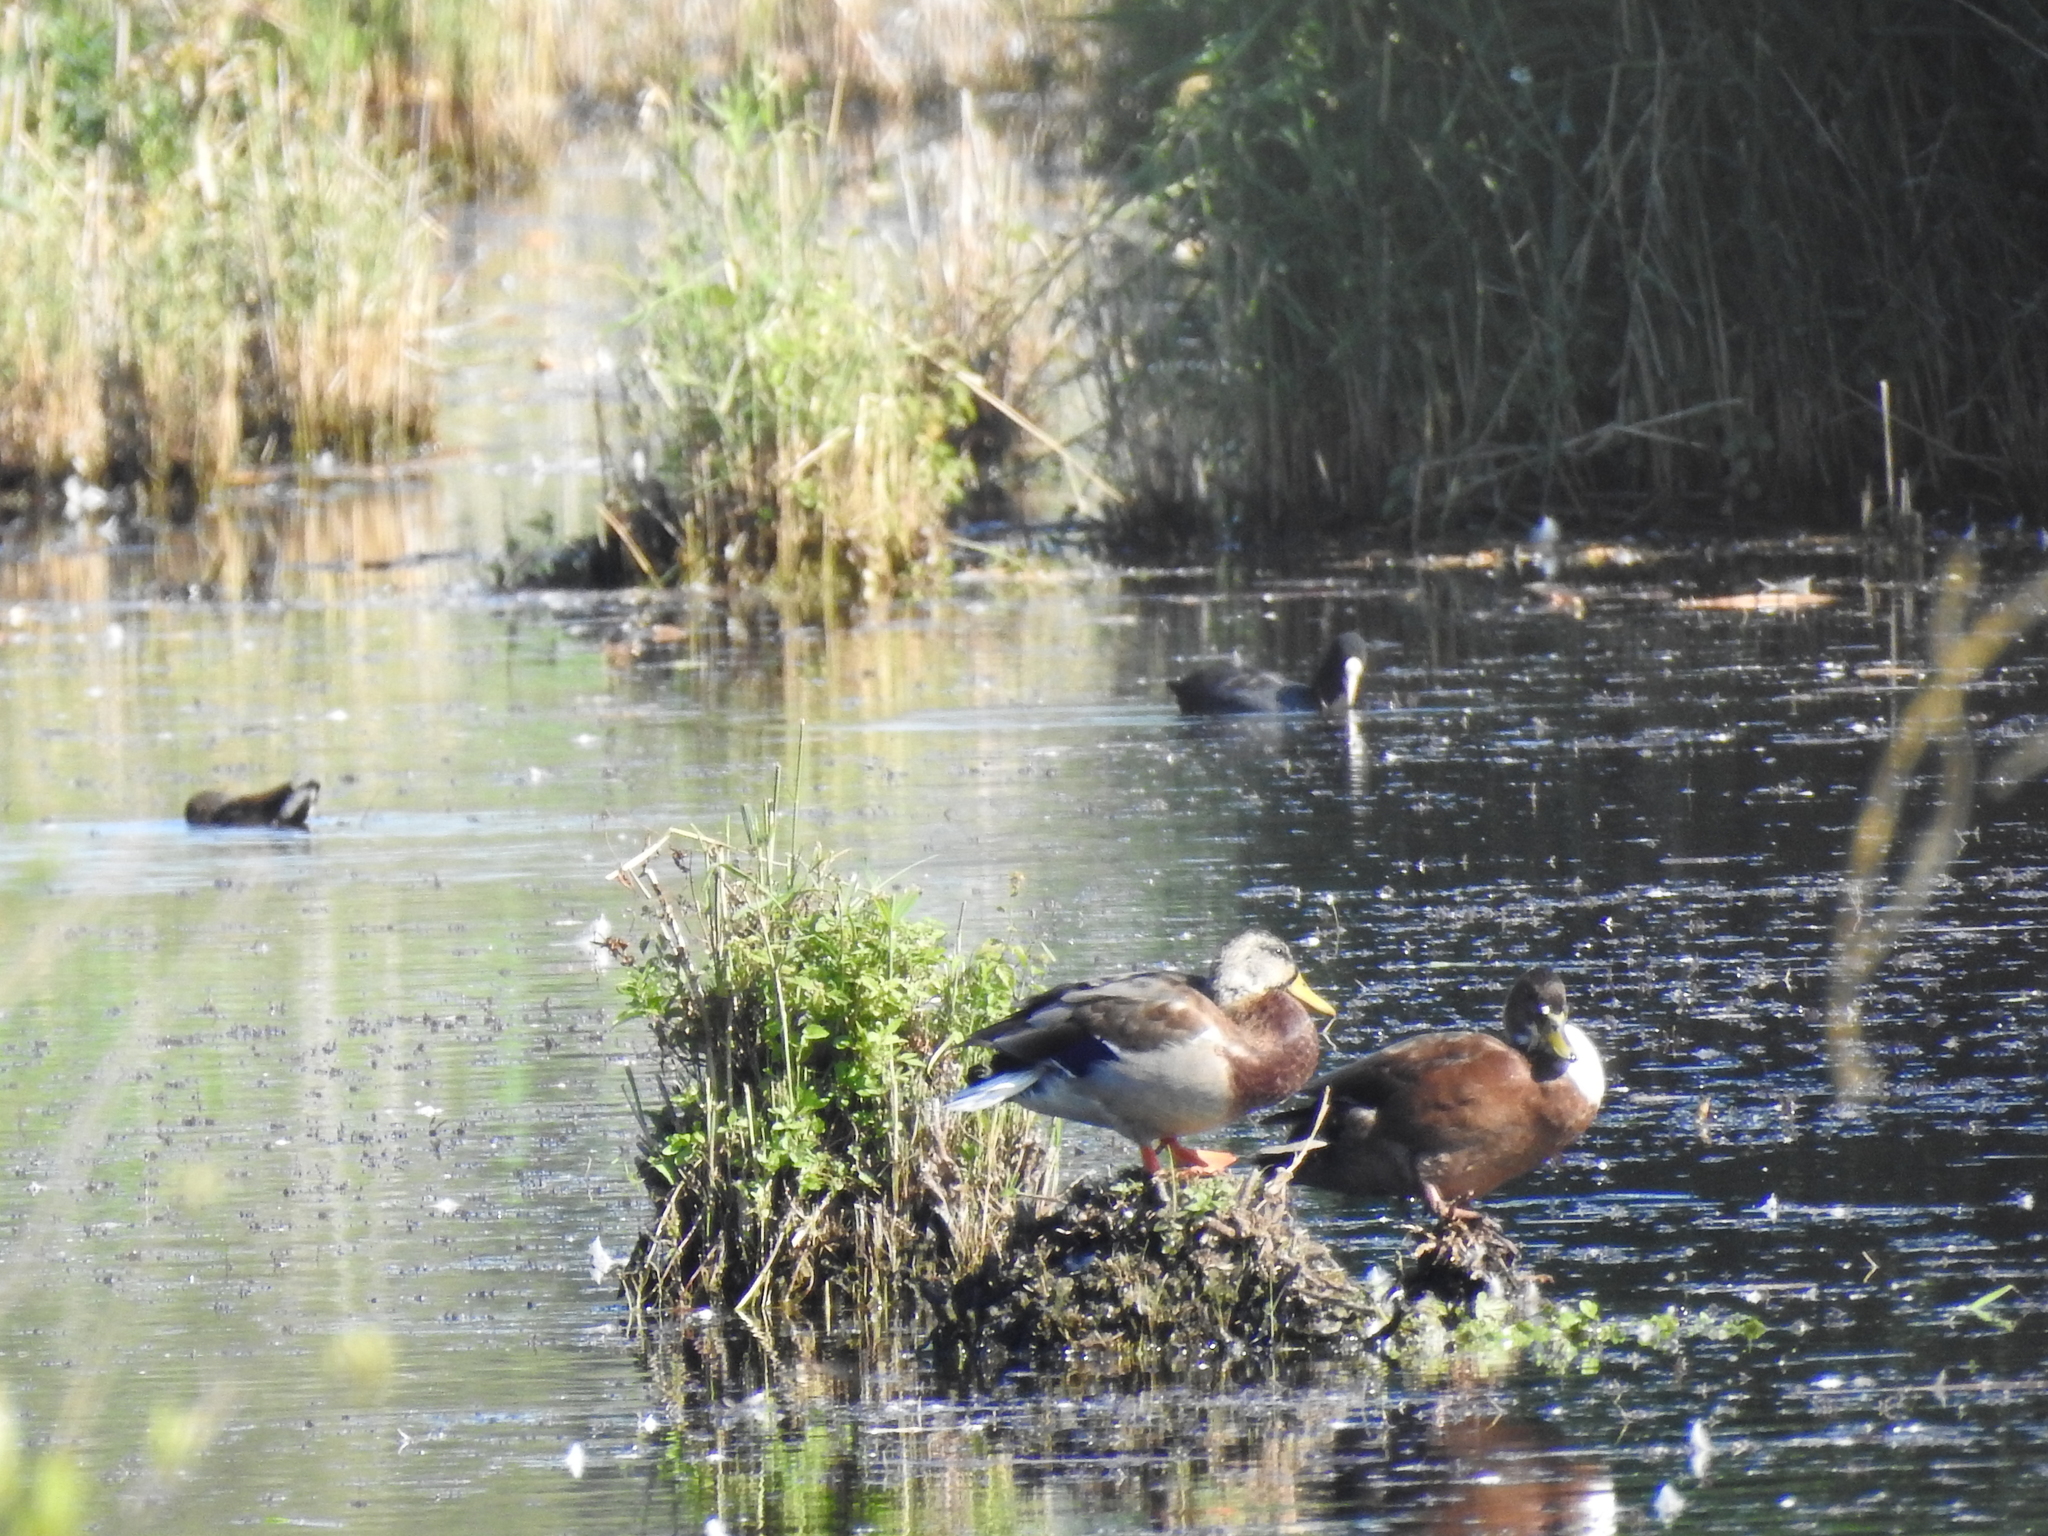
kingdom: Animalia
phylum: Chordata
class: Aves
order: Anseriformes
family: Anatidae
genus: Anas
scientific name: Anas platyrhynchos
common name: Mallard
